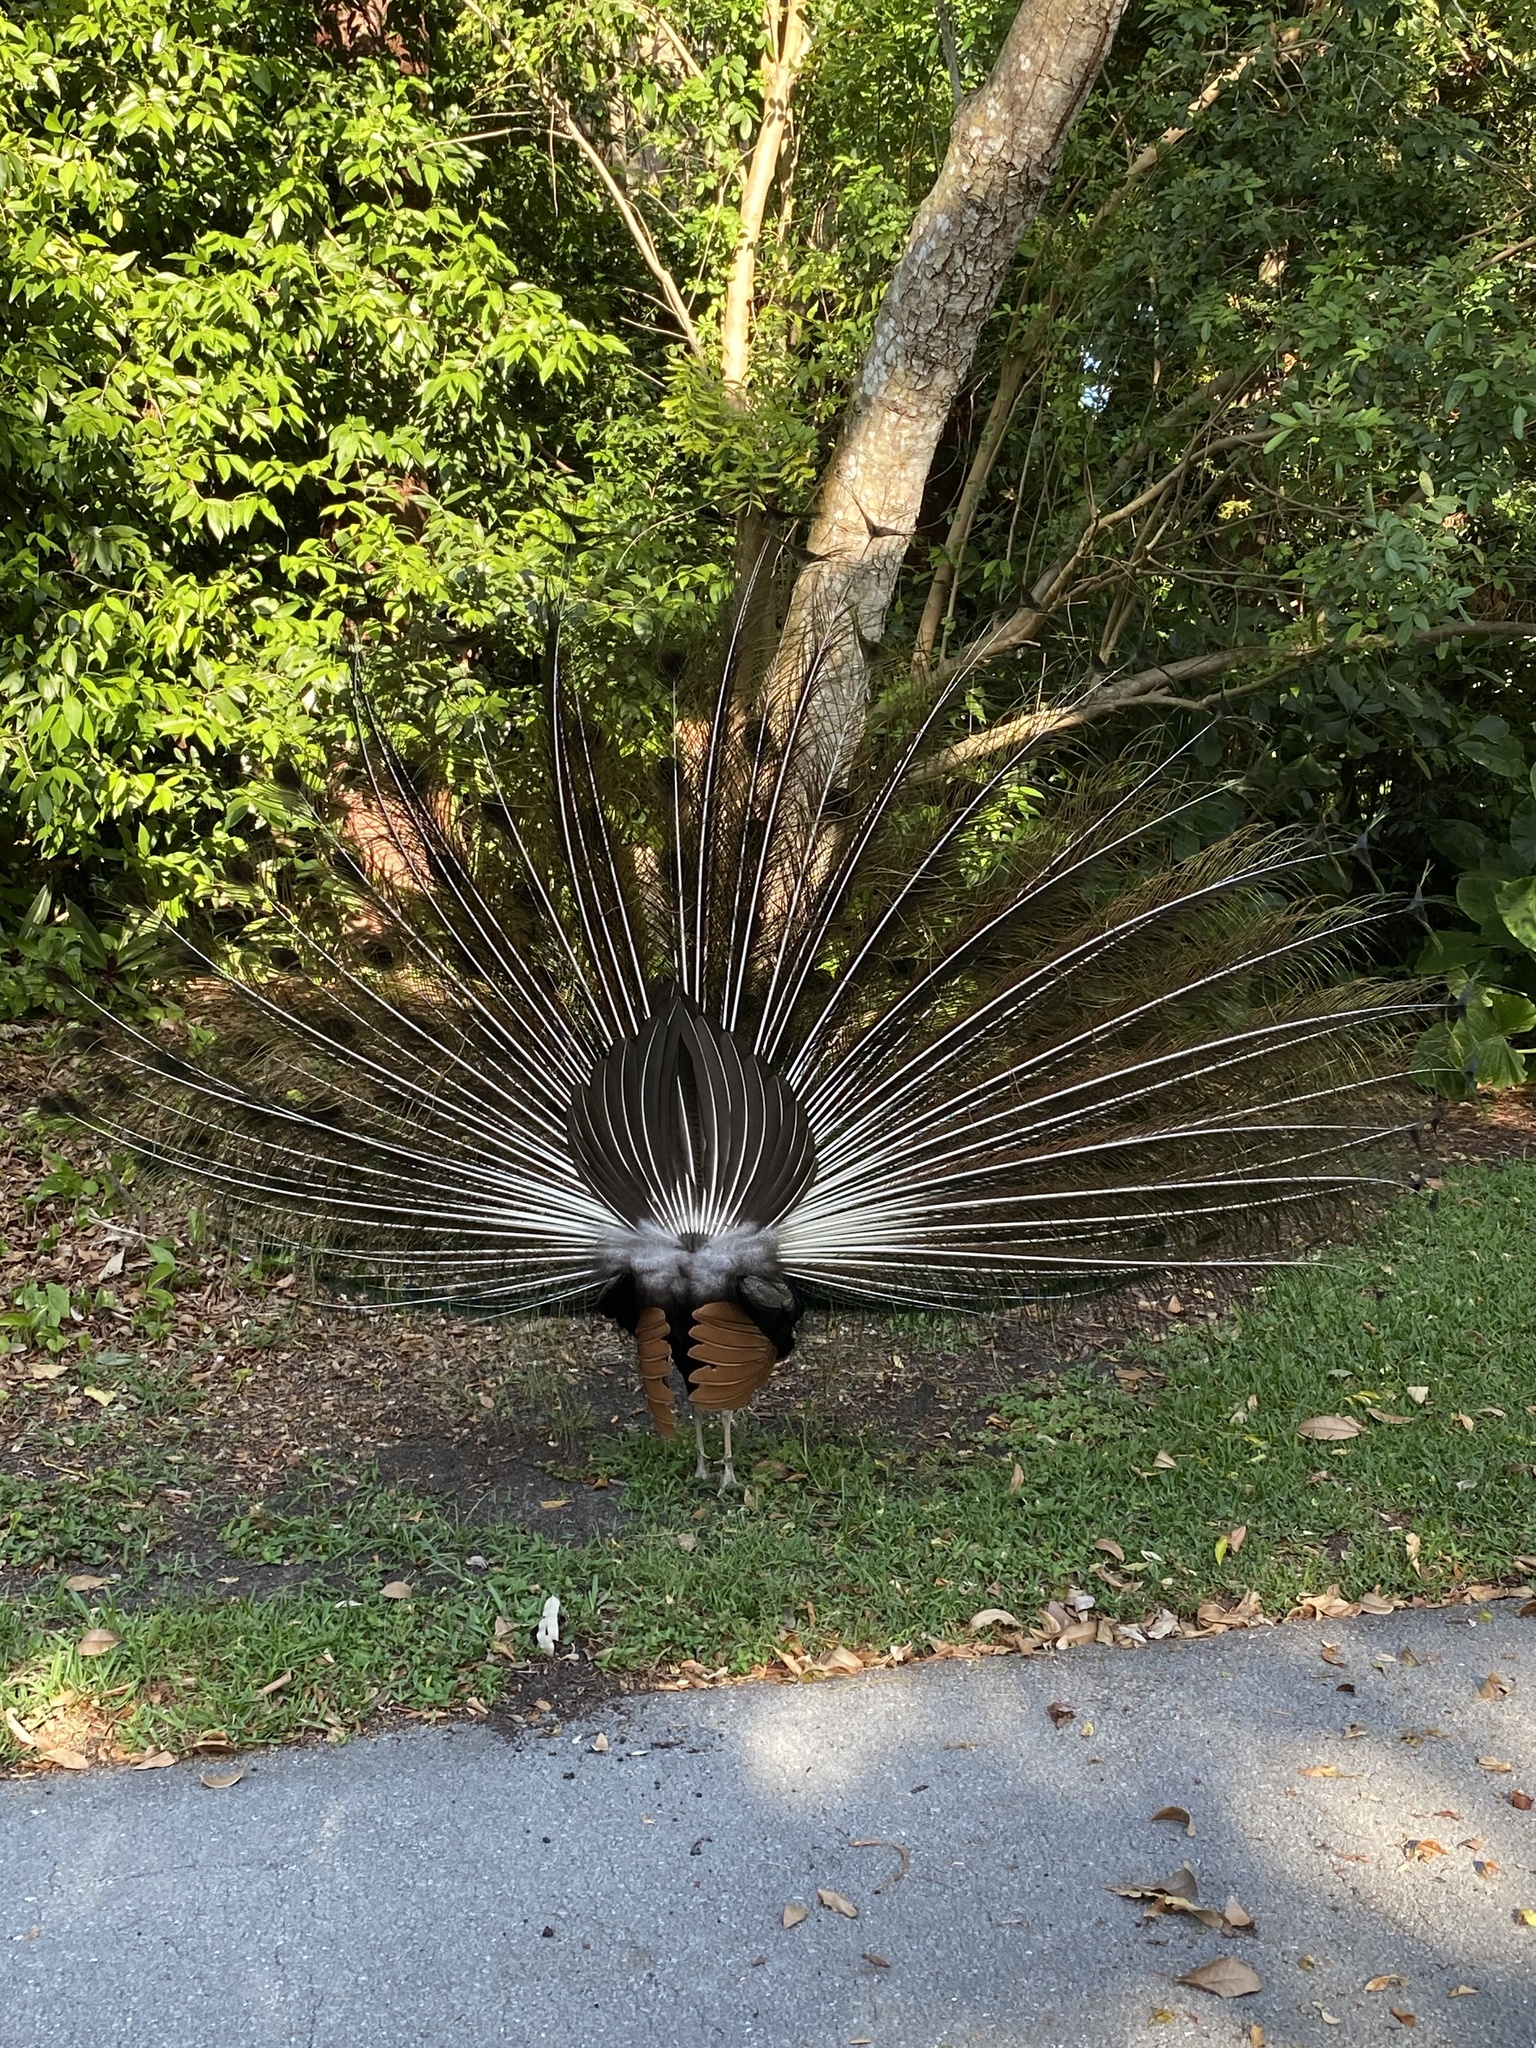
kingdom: Animalia
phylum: Chordata
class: Aves
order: Galliformes
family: Phasianidae
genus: Pavo
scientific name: Pavo cristatus
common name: Indian peafowl
